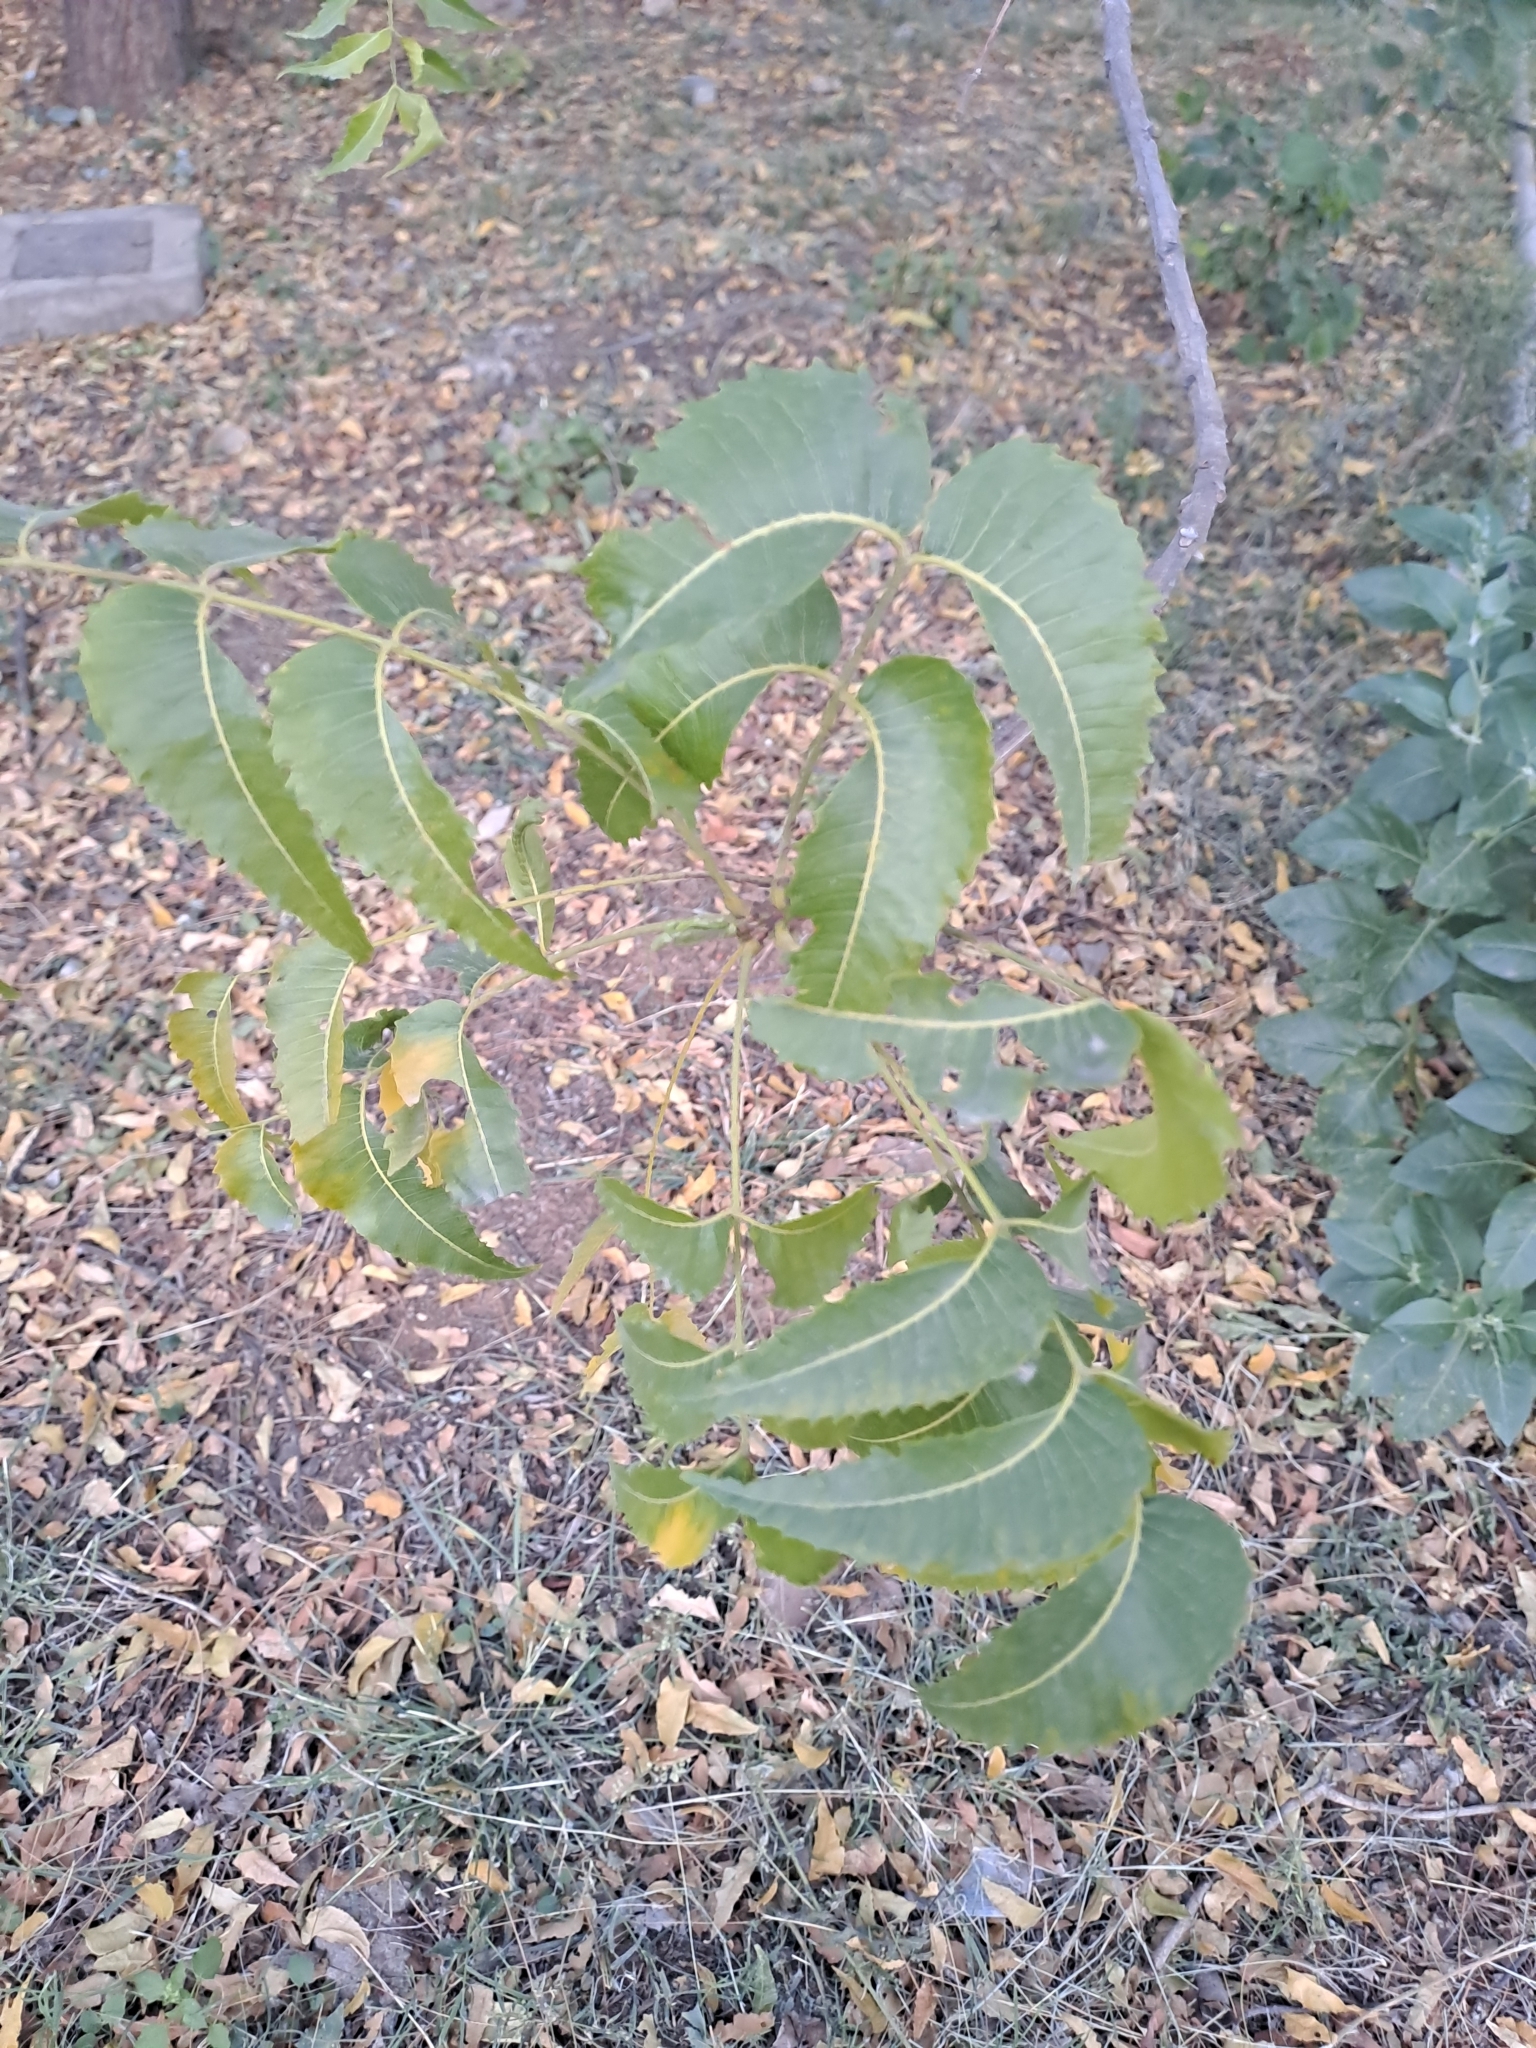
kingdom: Plantae
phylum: Tracheophyta
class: Magnoliopsida
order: Sapindales
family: Meliaceae
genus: Azadirachta
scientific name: Azadirachta indica
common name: Neem
